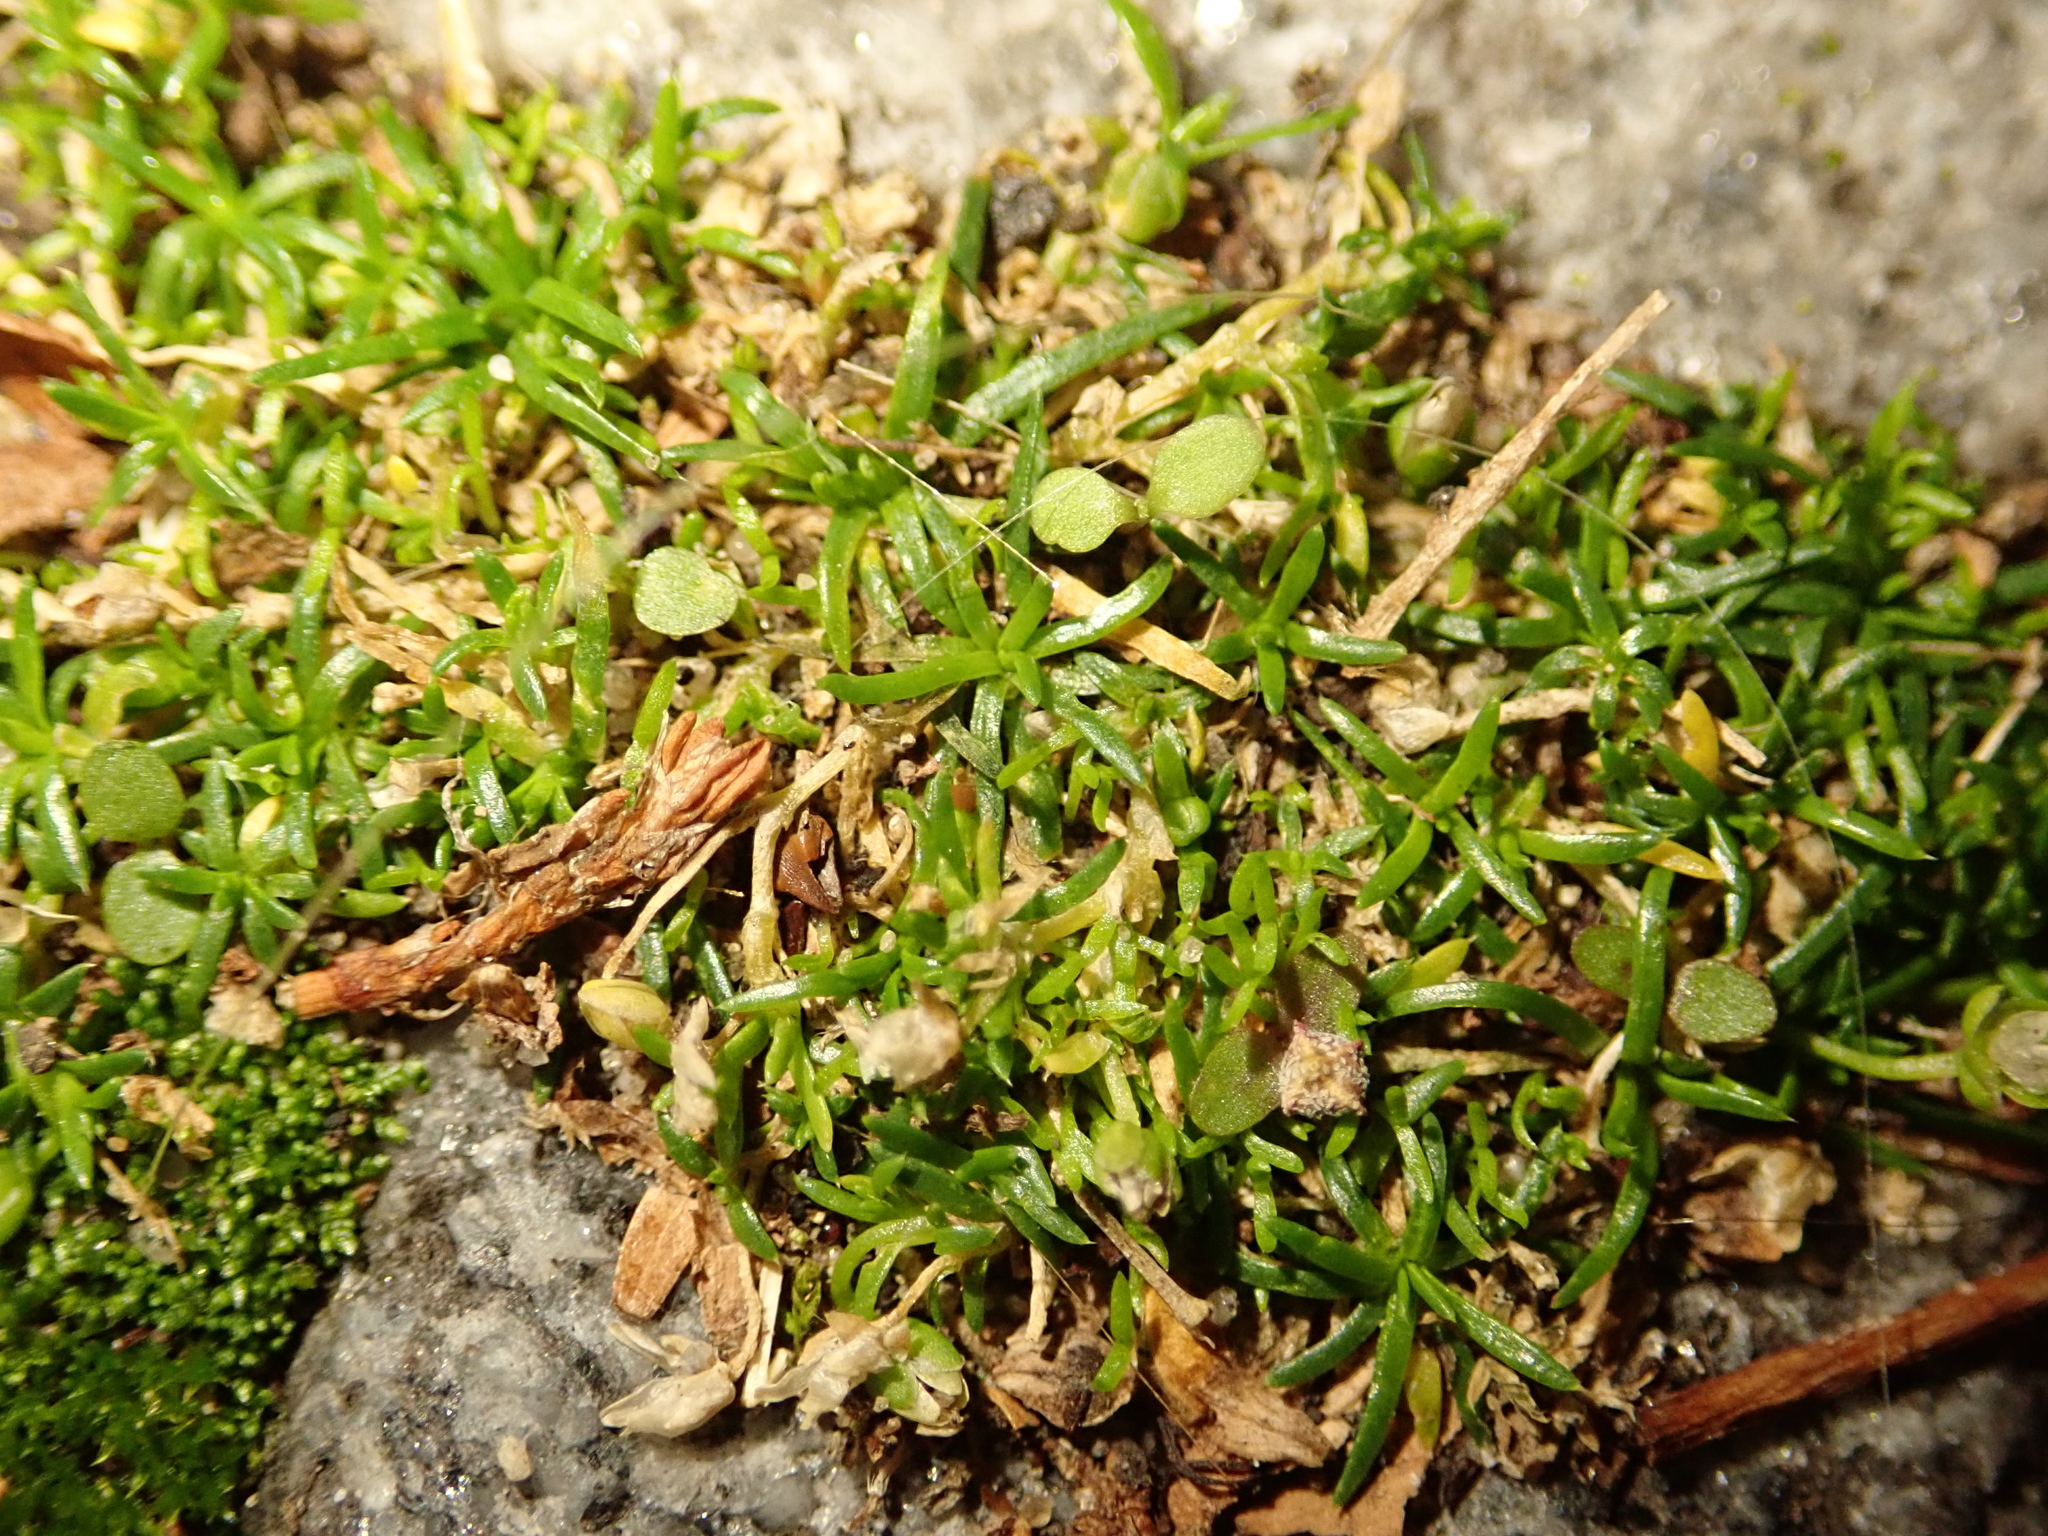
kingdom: Plantae
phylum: Tracheophyta
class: Magnoliopsida
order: Caryophyllales
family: Caryophyllaceae
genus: Sagina
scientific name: Sagina procumbens
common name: Procumbent pearlwort
